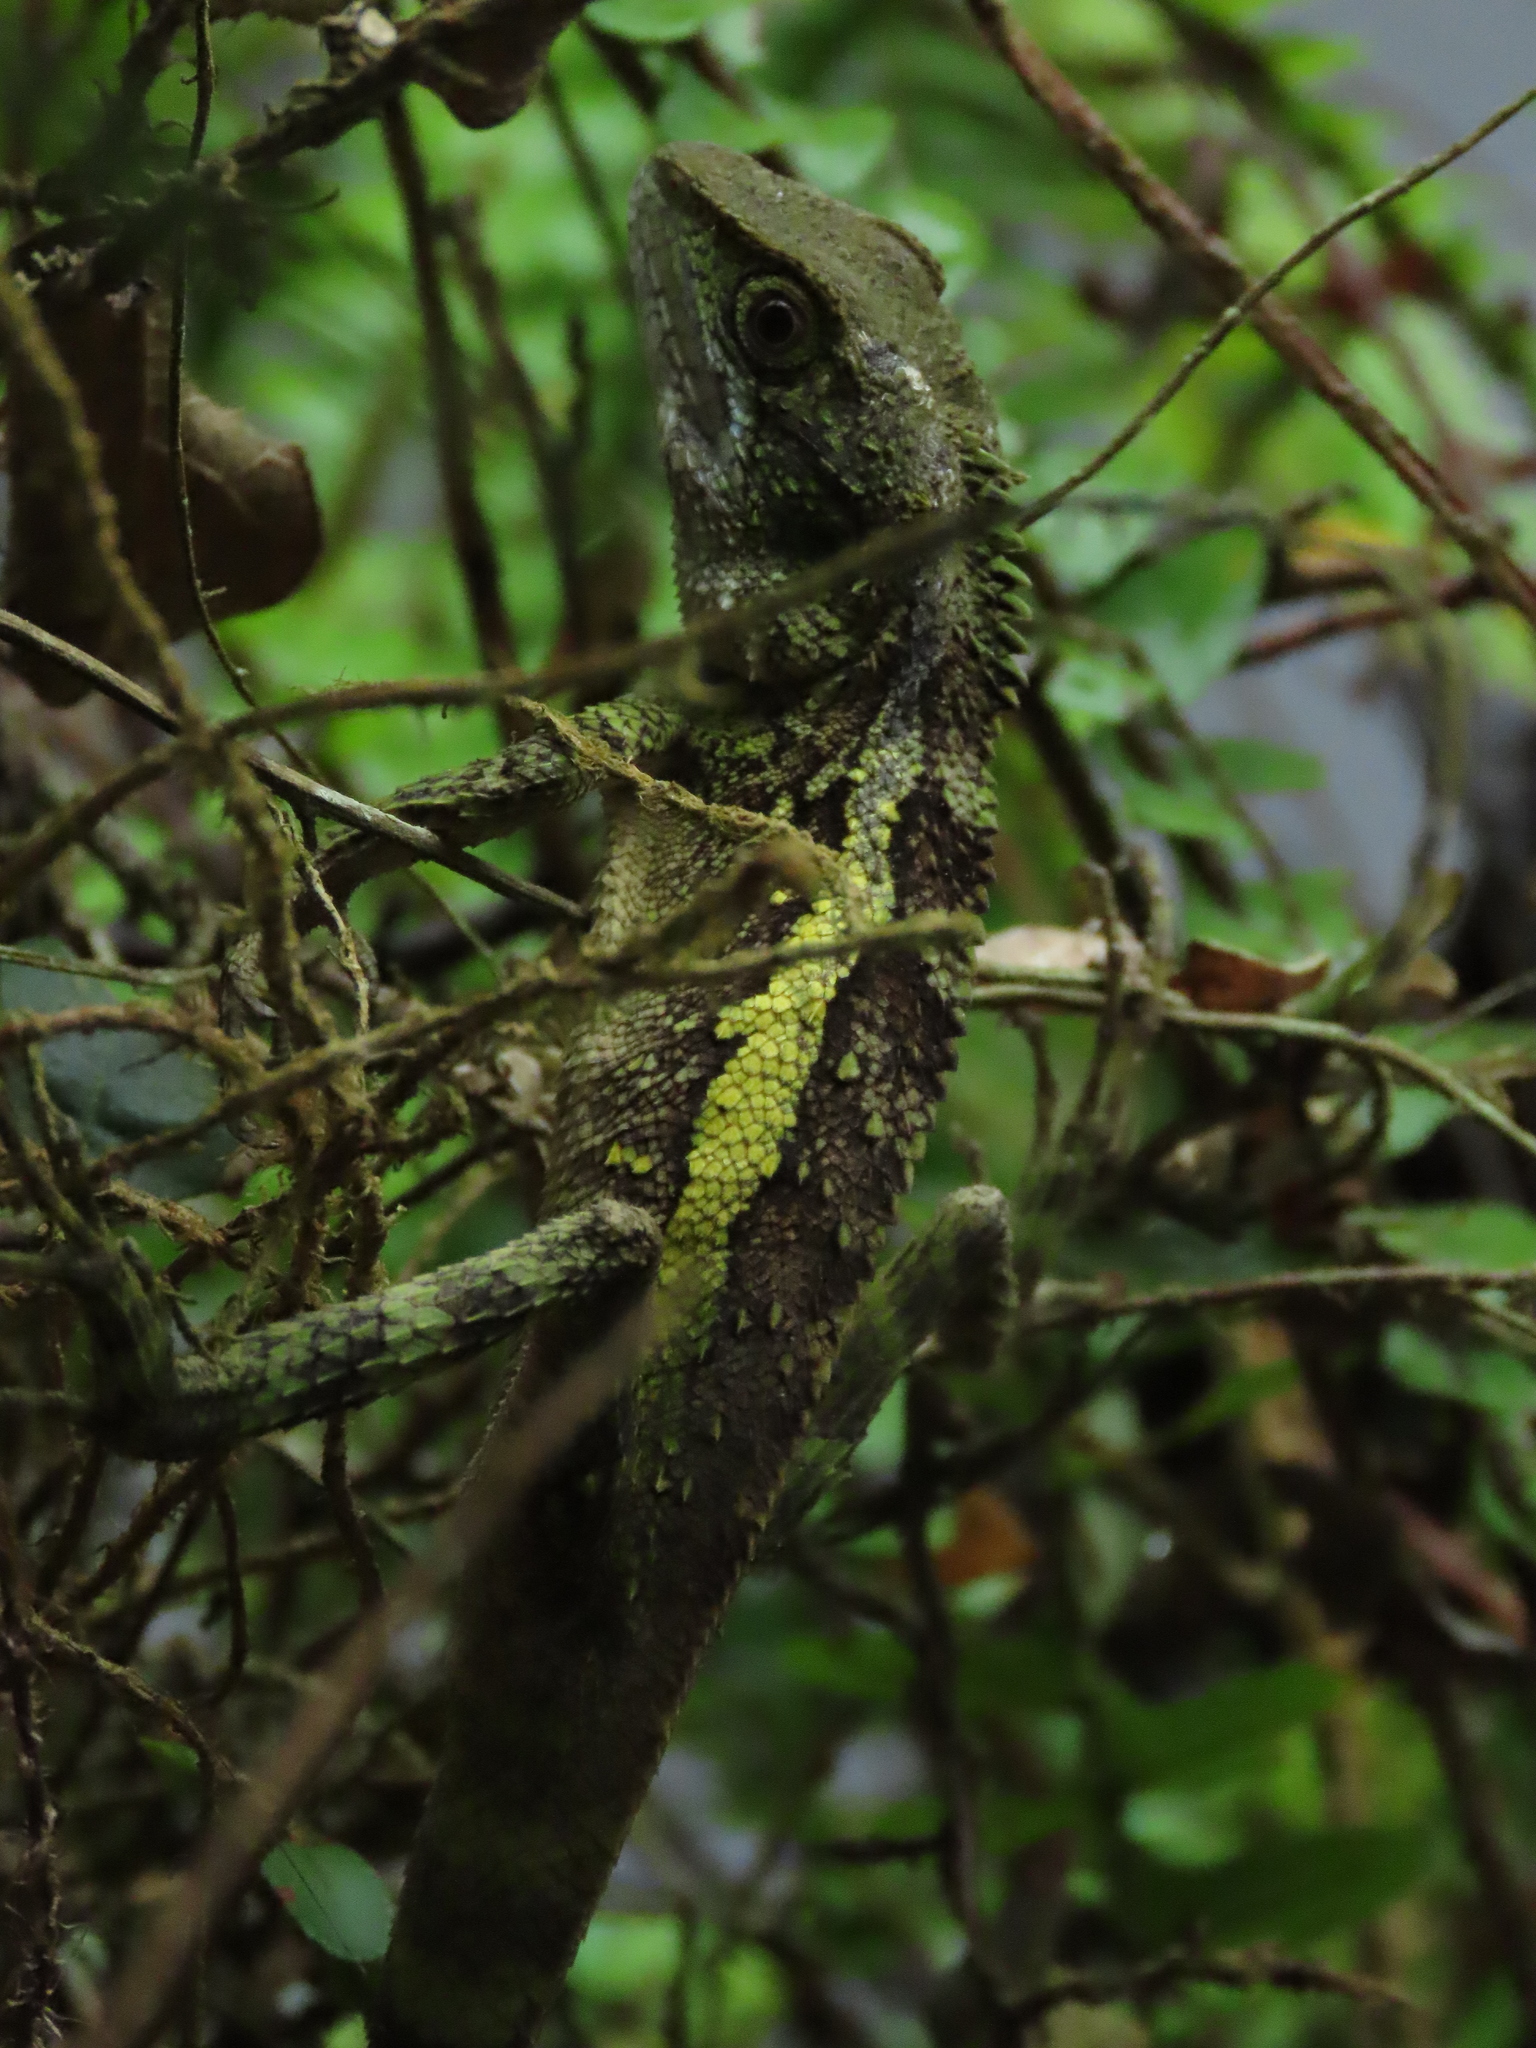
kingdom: Animalia
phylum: Chordata
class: Squamata
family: Agamidae
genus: Diploderma
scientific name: Diploderma swinhonis
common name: Taiwan japalure
